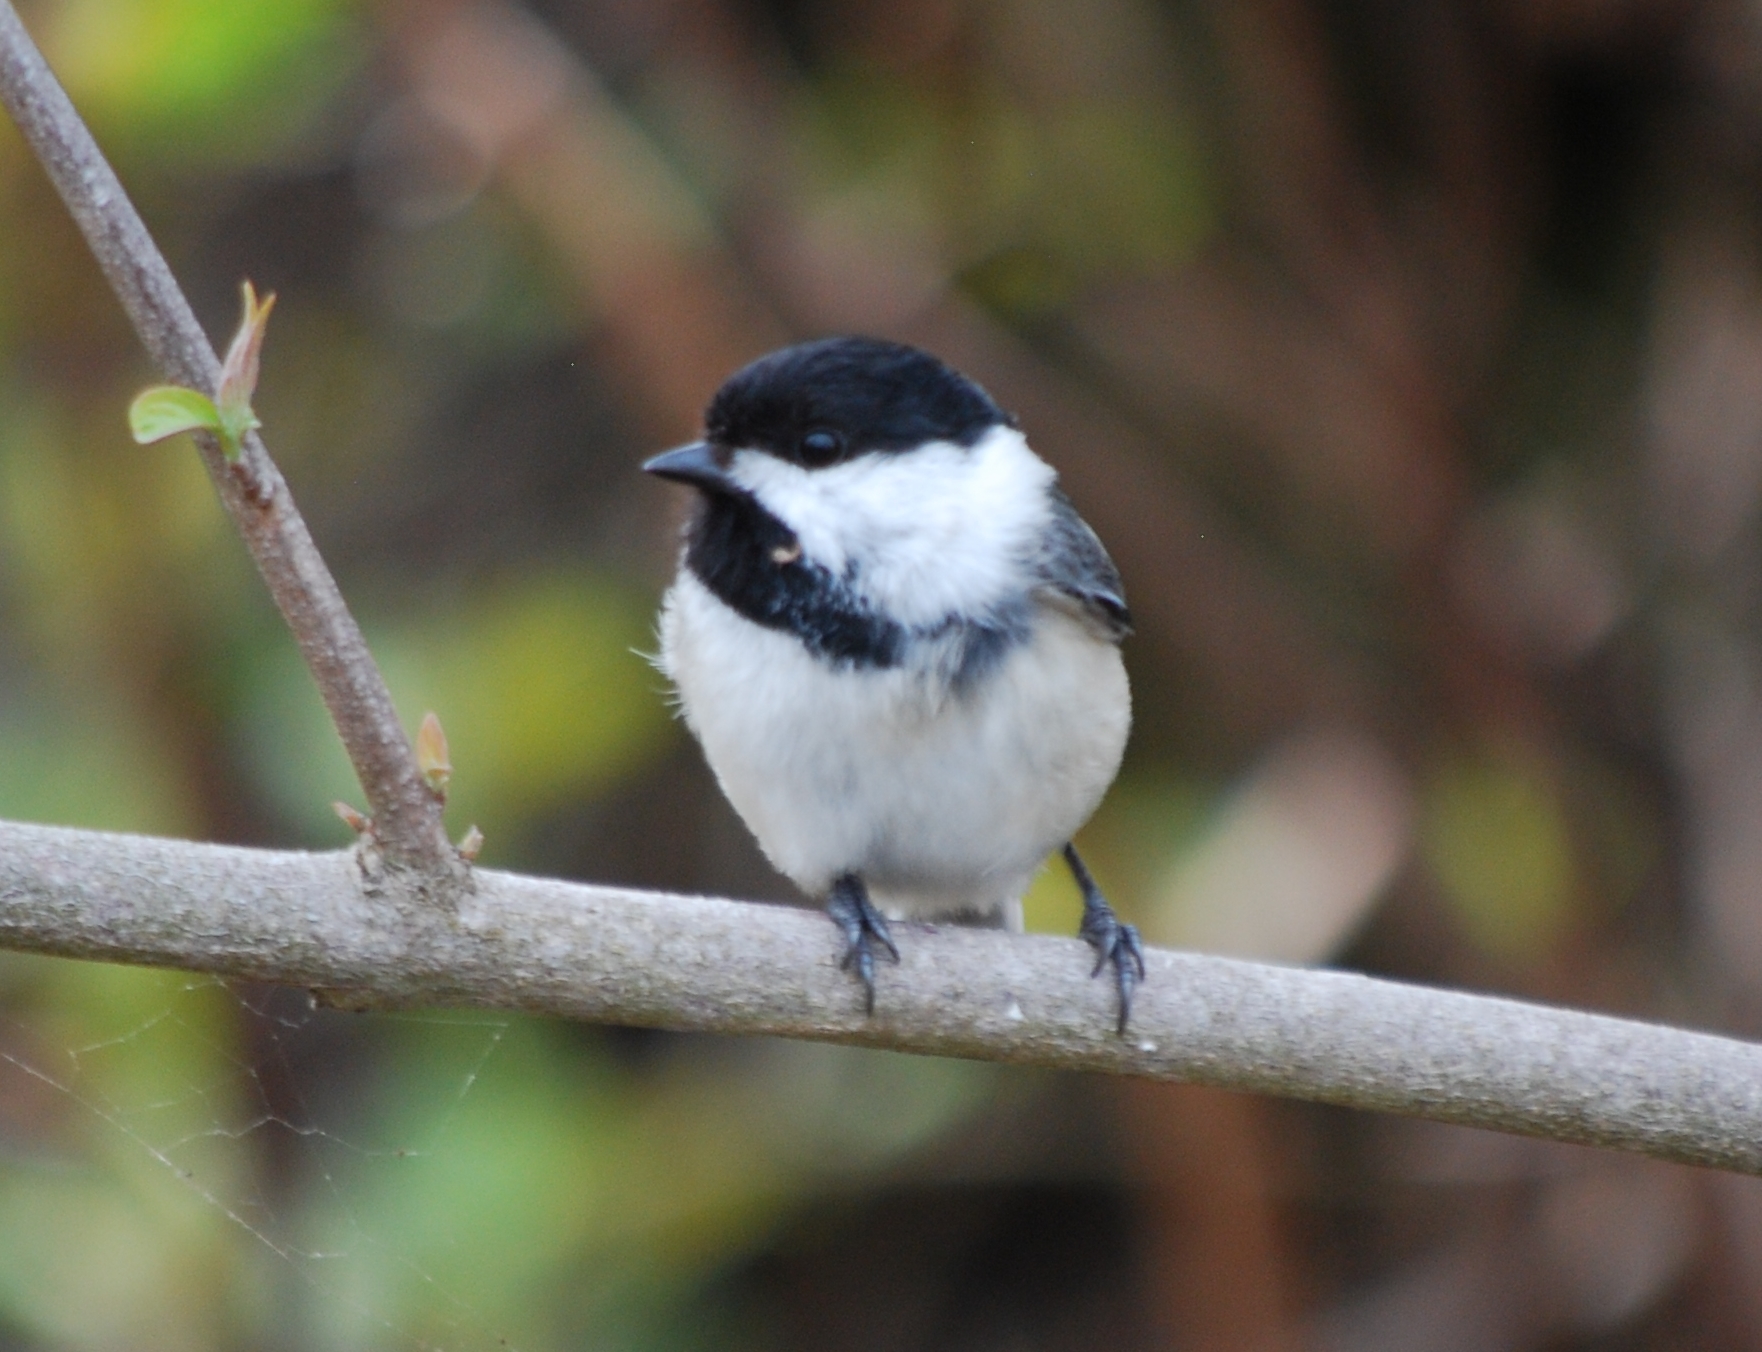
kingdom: Animalia
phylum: Chordata
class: Aves
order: Passeriformes
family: Paridae
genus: Poecile
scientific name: Poecile atricapillus
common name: Black-capped chickadee
